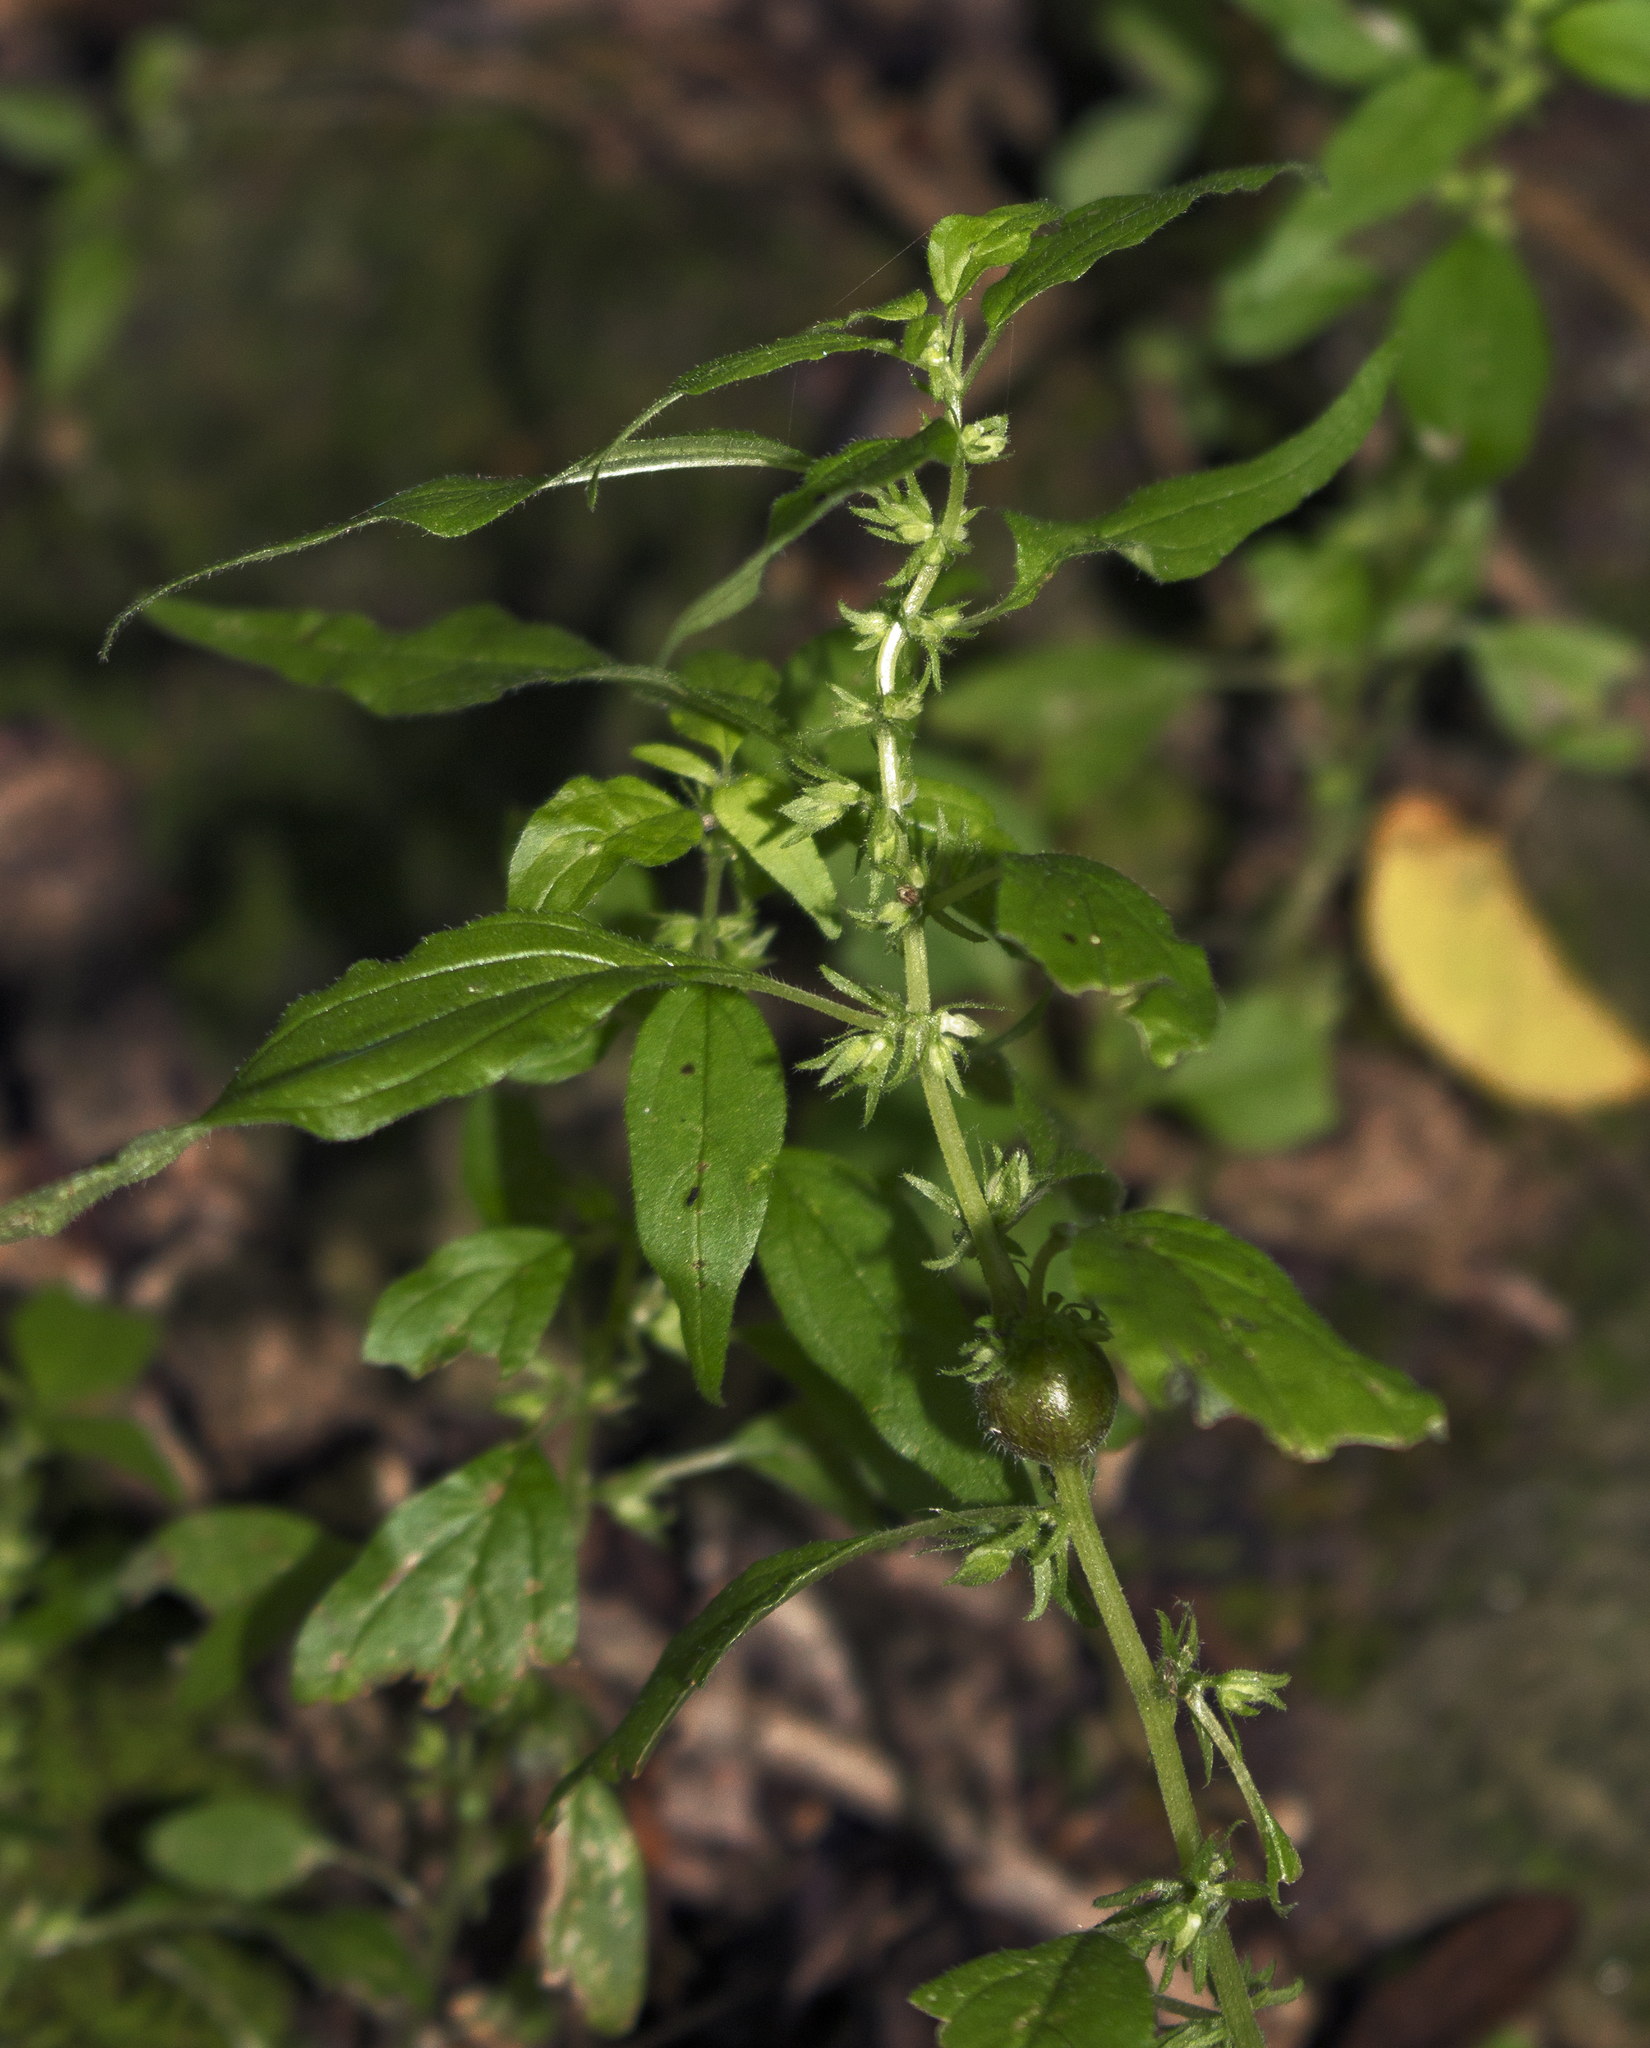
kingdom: Plantae
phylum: Tracheophyta
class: Magnoliopsida
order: Rosales
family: Urticaceae
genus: Parietaria
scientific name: Parietaria pensylvanica
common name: Pennsylvania pellitory
